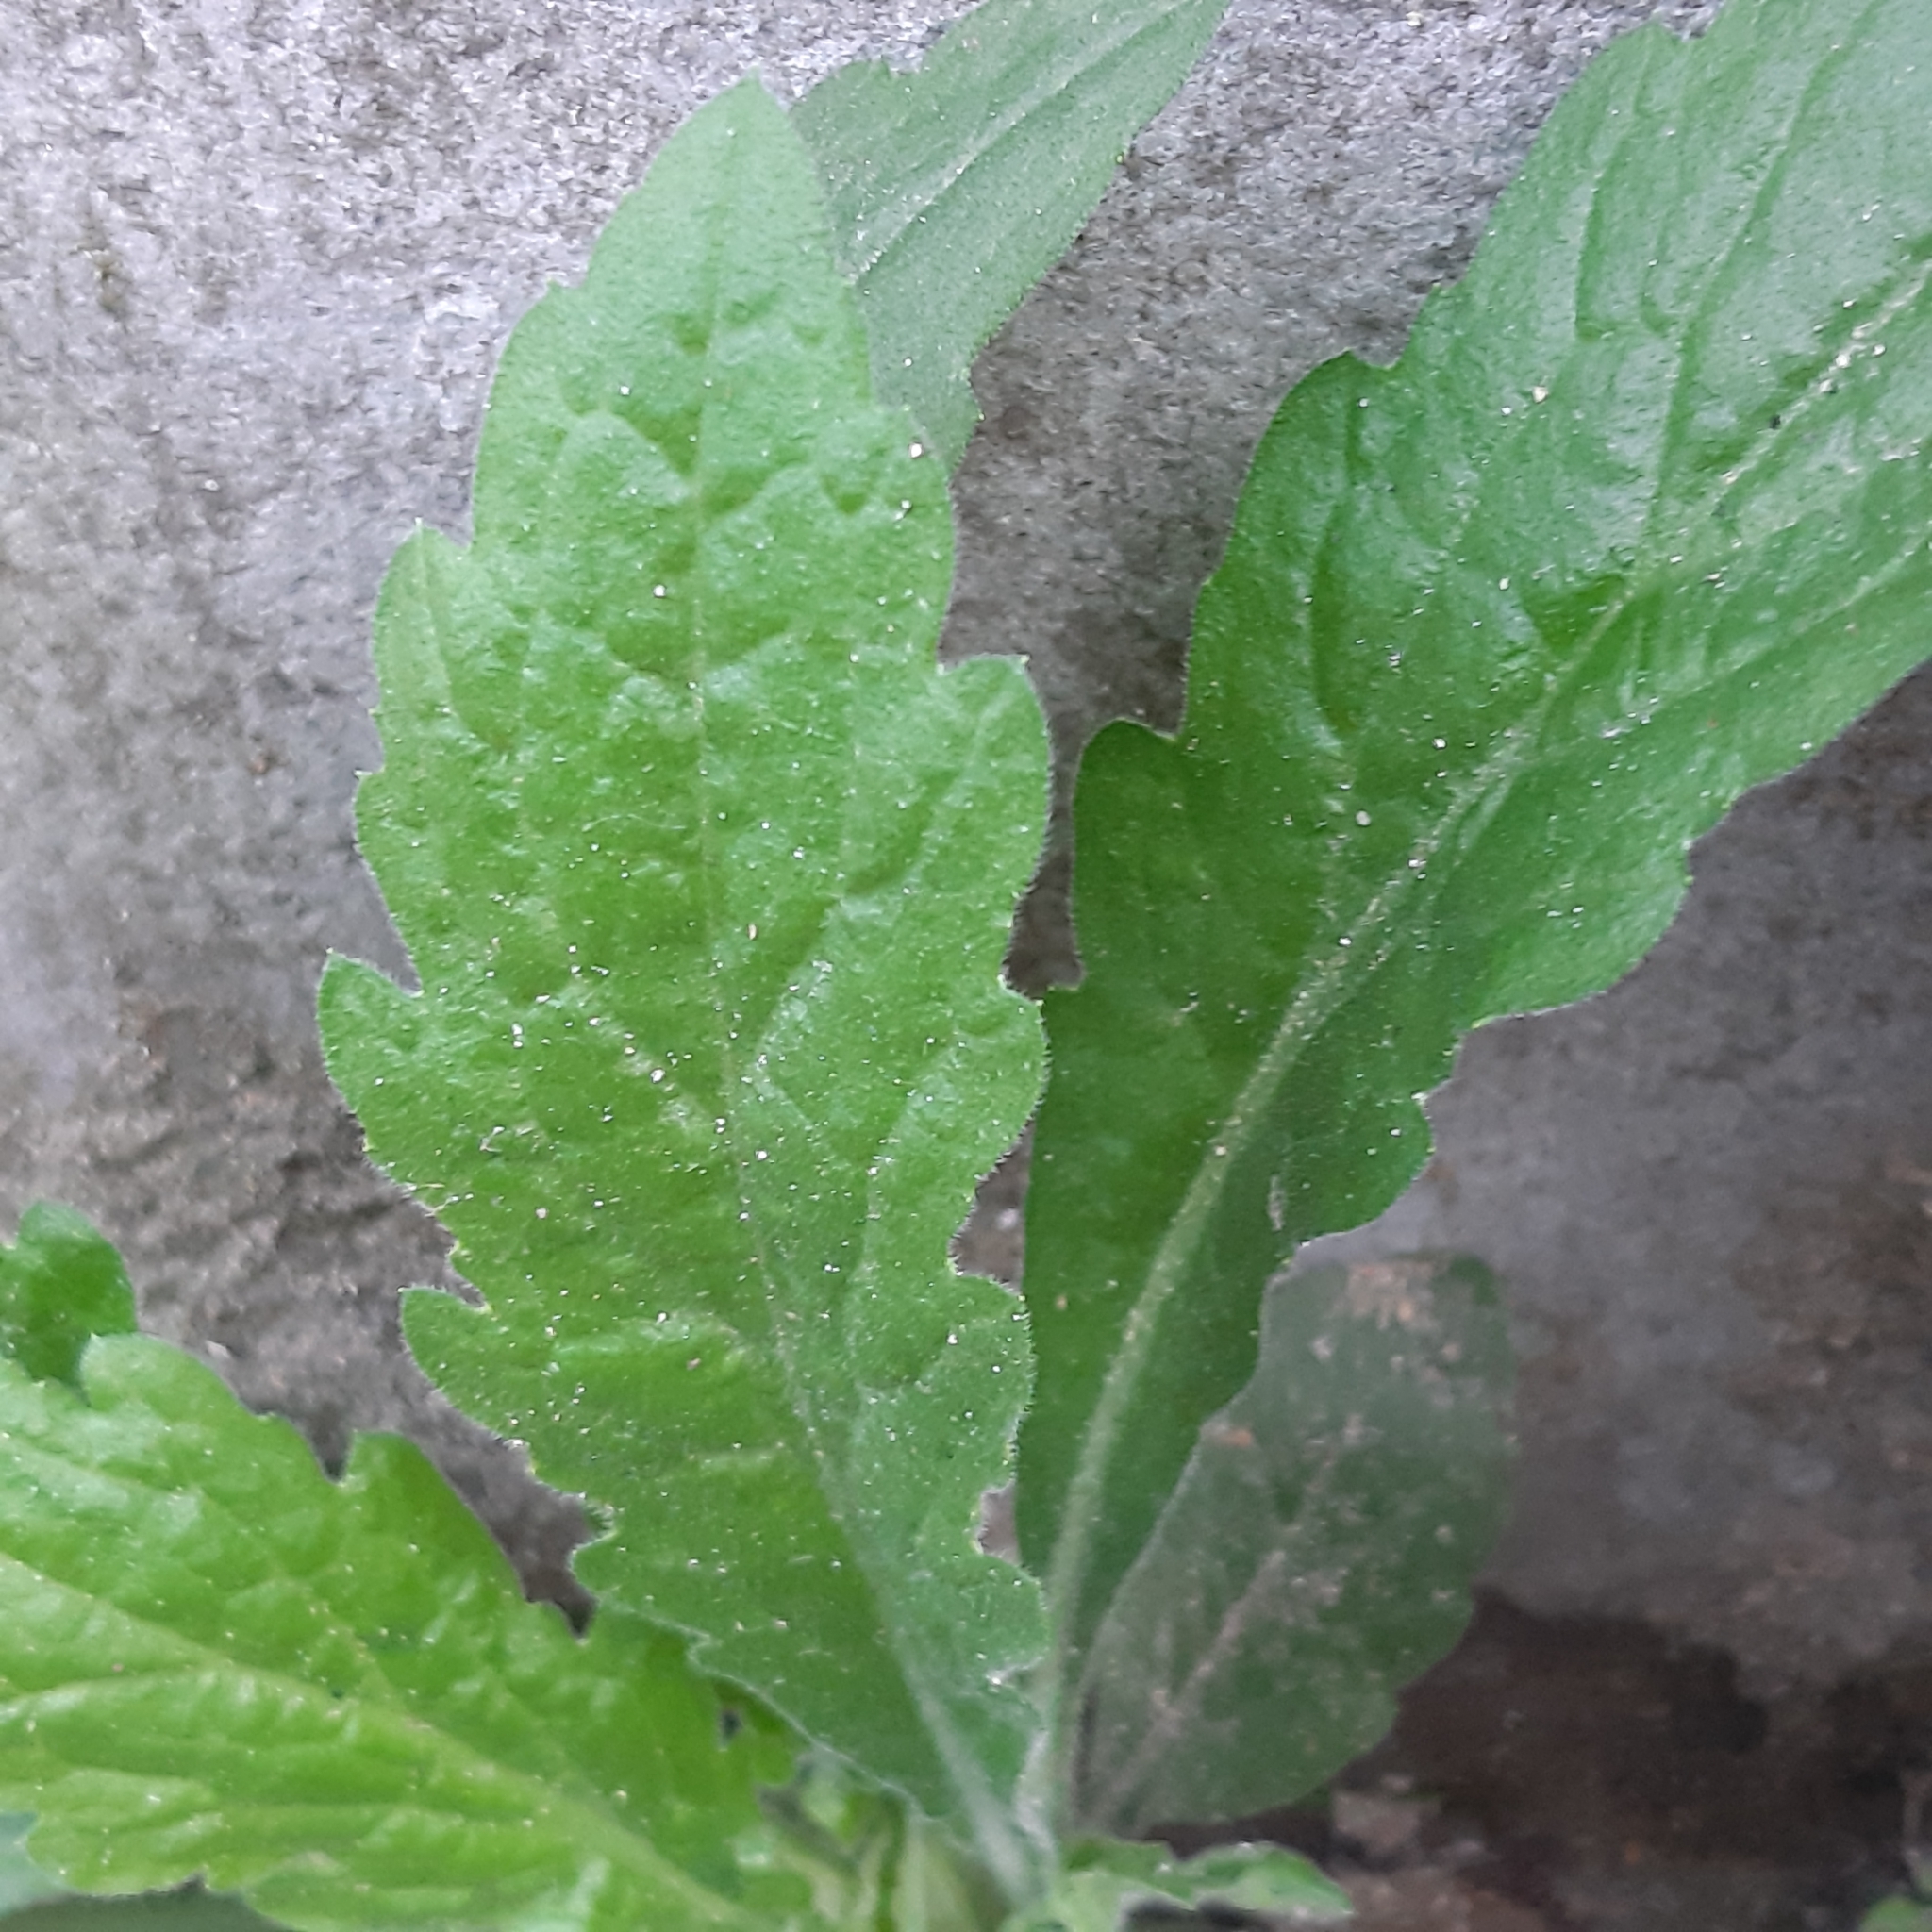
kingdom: Plantae
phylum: Tracheophyta
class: Magnoliopsida
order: Asterales
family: Asteraceae
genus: Erigeron
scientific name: Erigeron sumatrensis
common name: Daisy
